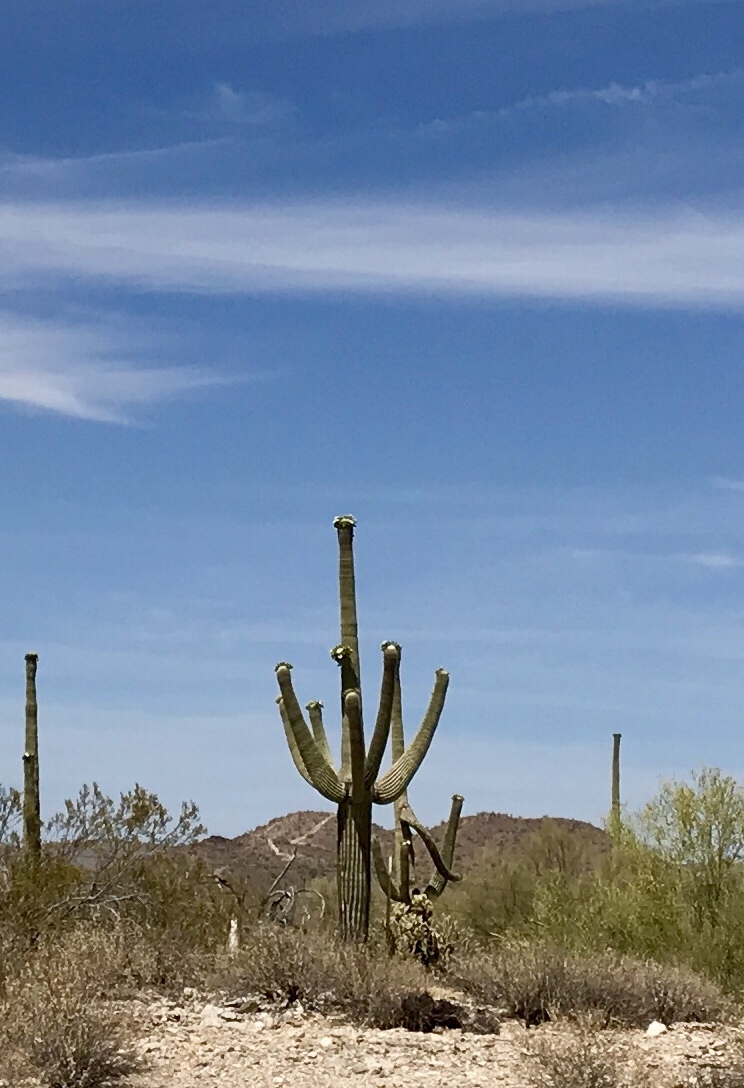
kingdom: Plantae
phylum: Tracheophyta
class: Magnoliopsida
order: Caryophyllales
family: Cactaceae
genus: Carnegiea
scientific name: Carnegiea gigantea
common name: Saguaro
